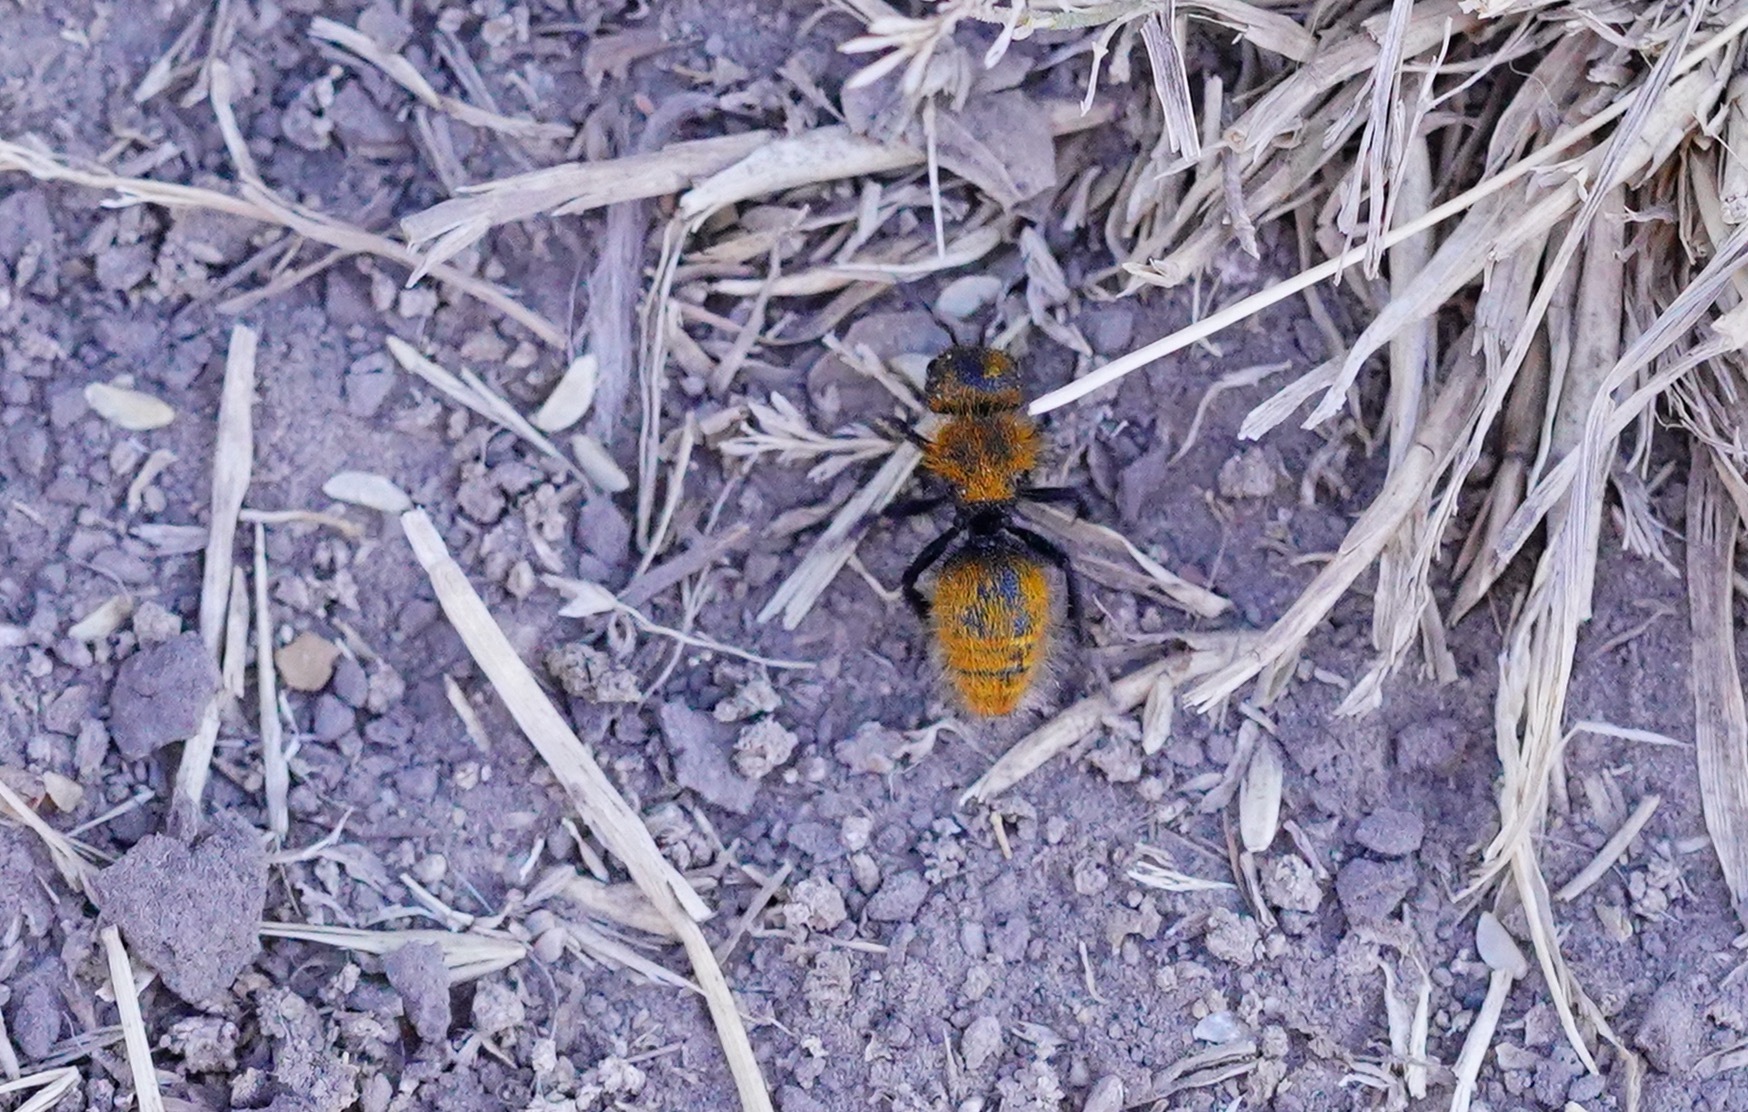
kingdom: Animalia
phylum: Arthropoda
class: Insecta
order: Hymenoptera
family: Mutillidae
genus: Dasymutilla
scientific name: Dasymutilla
